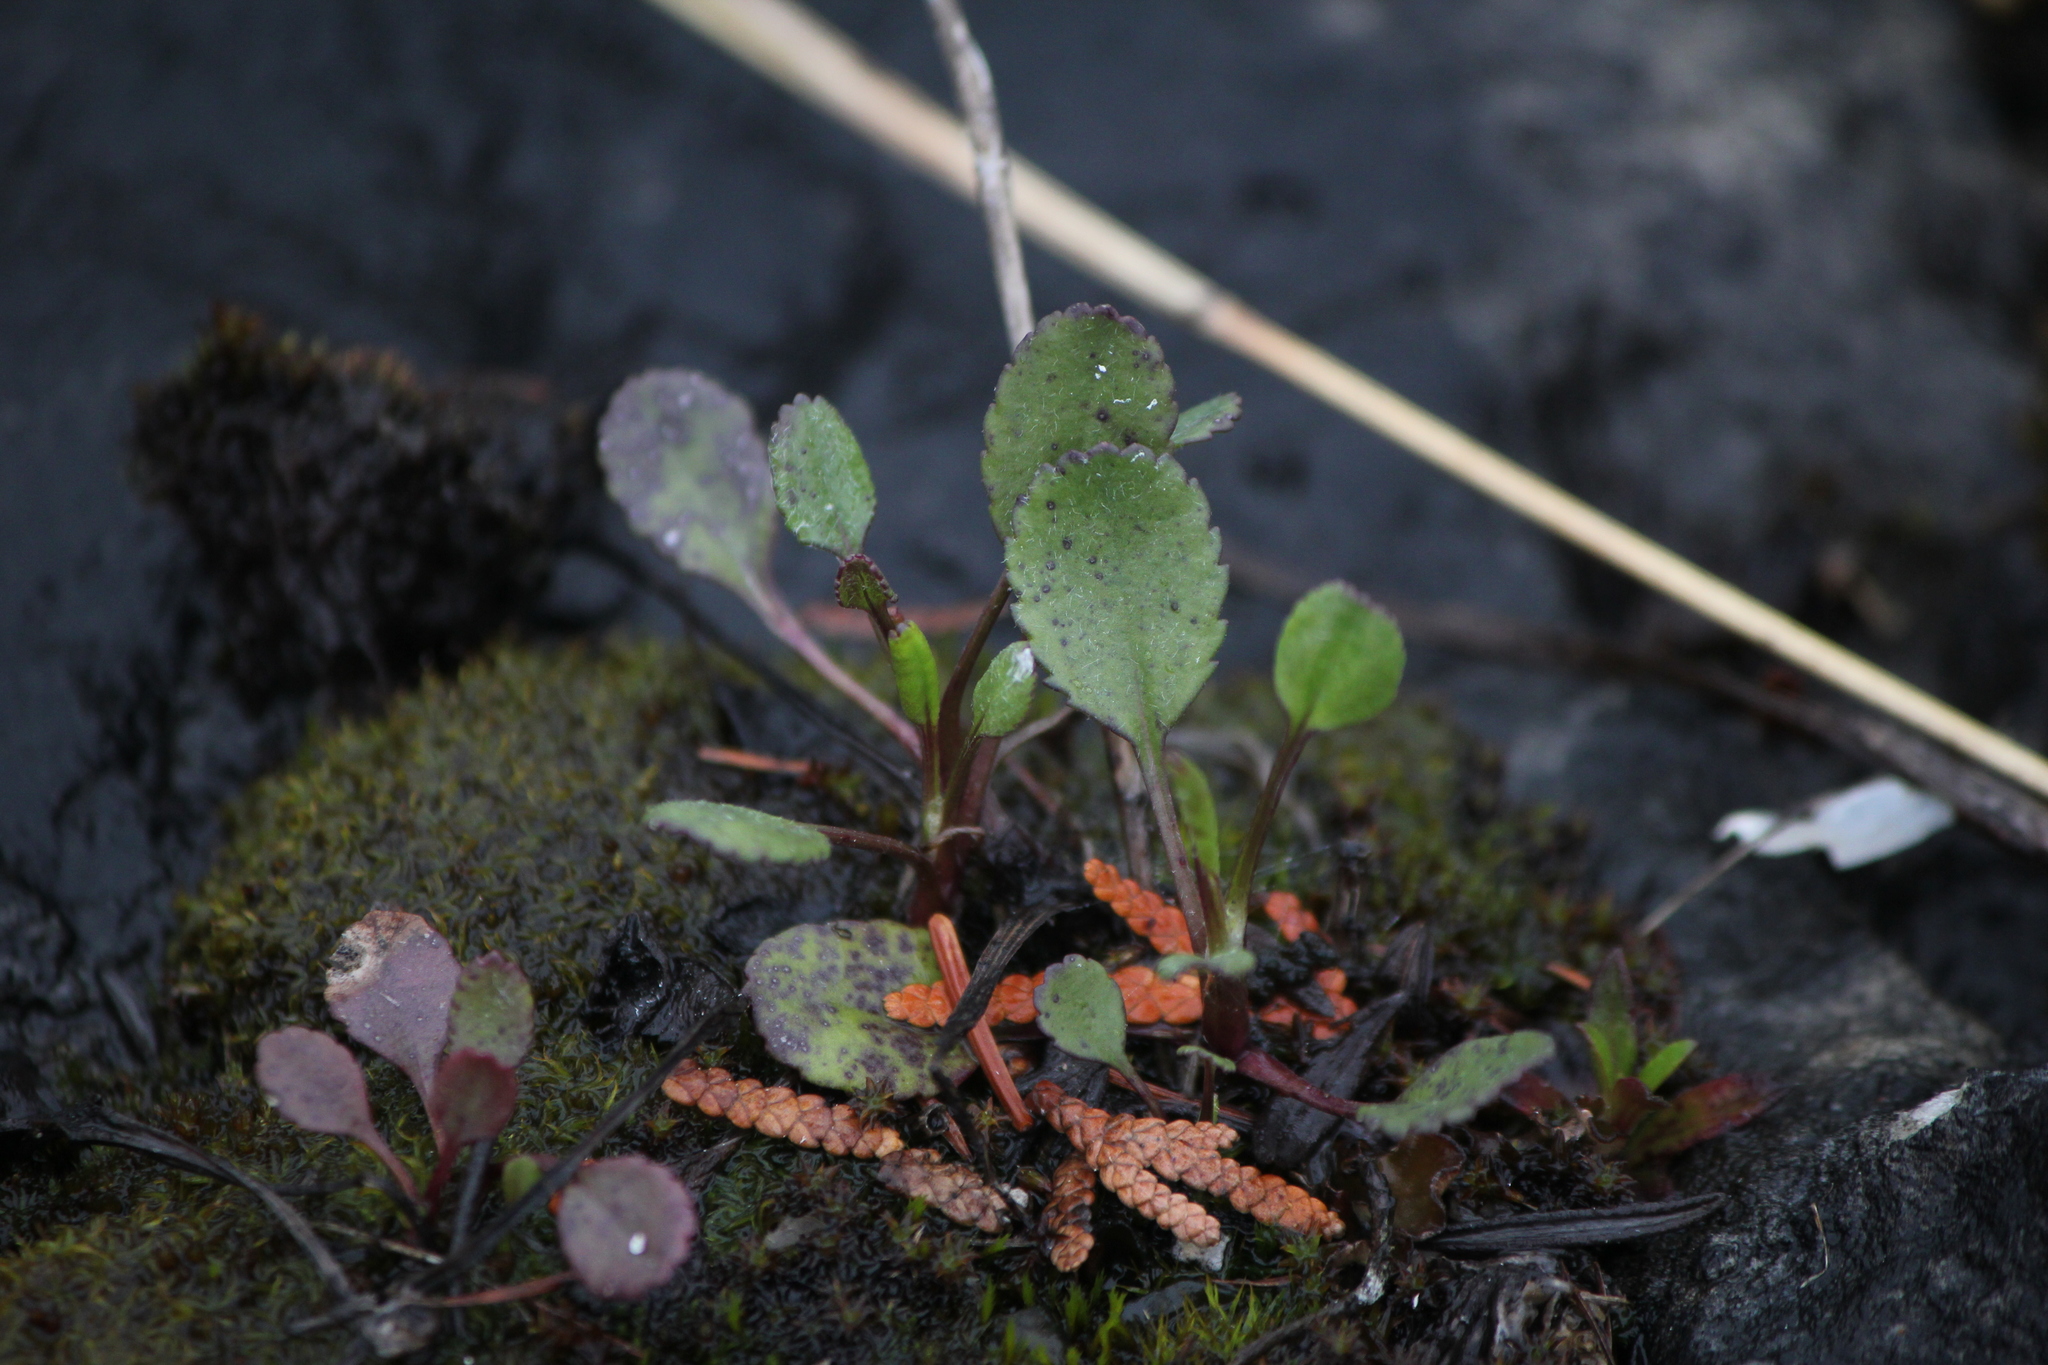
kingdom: Plantae
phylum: Tracheophyta
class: Magnoliopsida
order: Asterales
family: Asteraceae
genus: Packera
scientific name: Packera obovata
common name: Round-leaf ragwort
